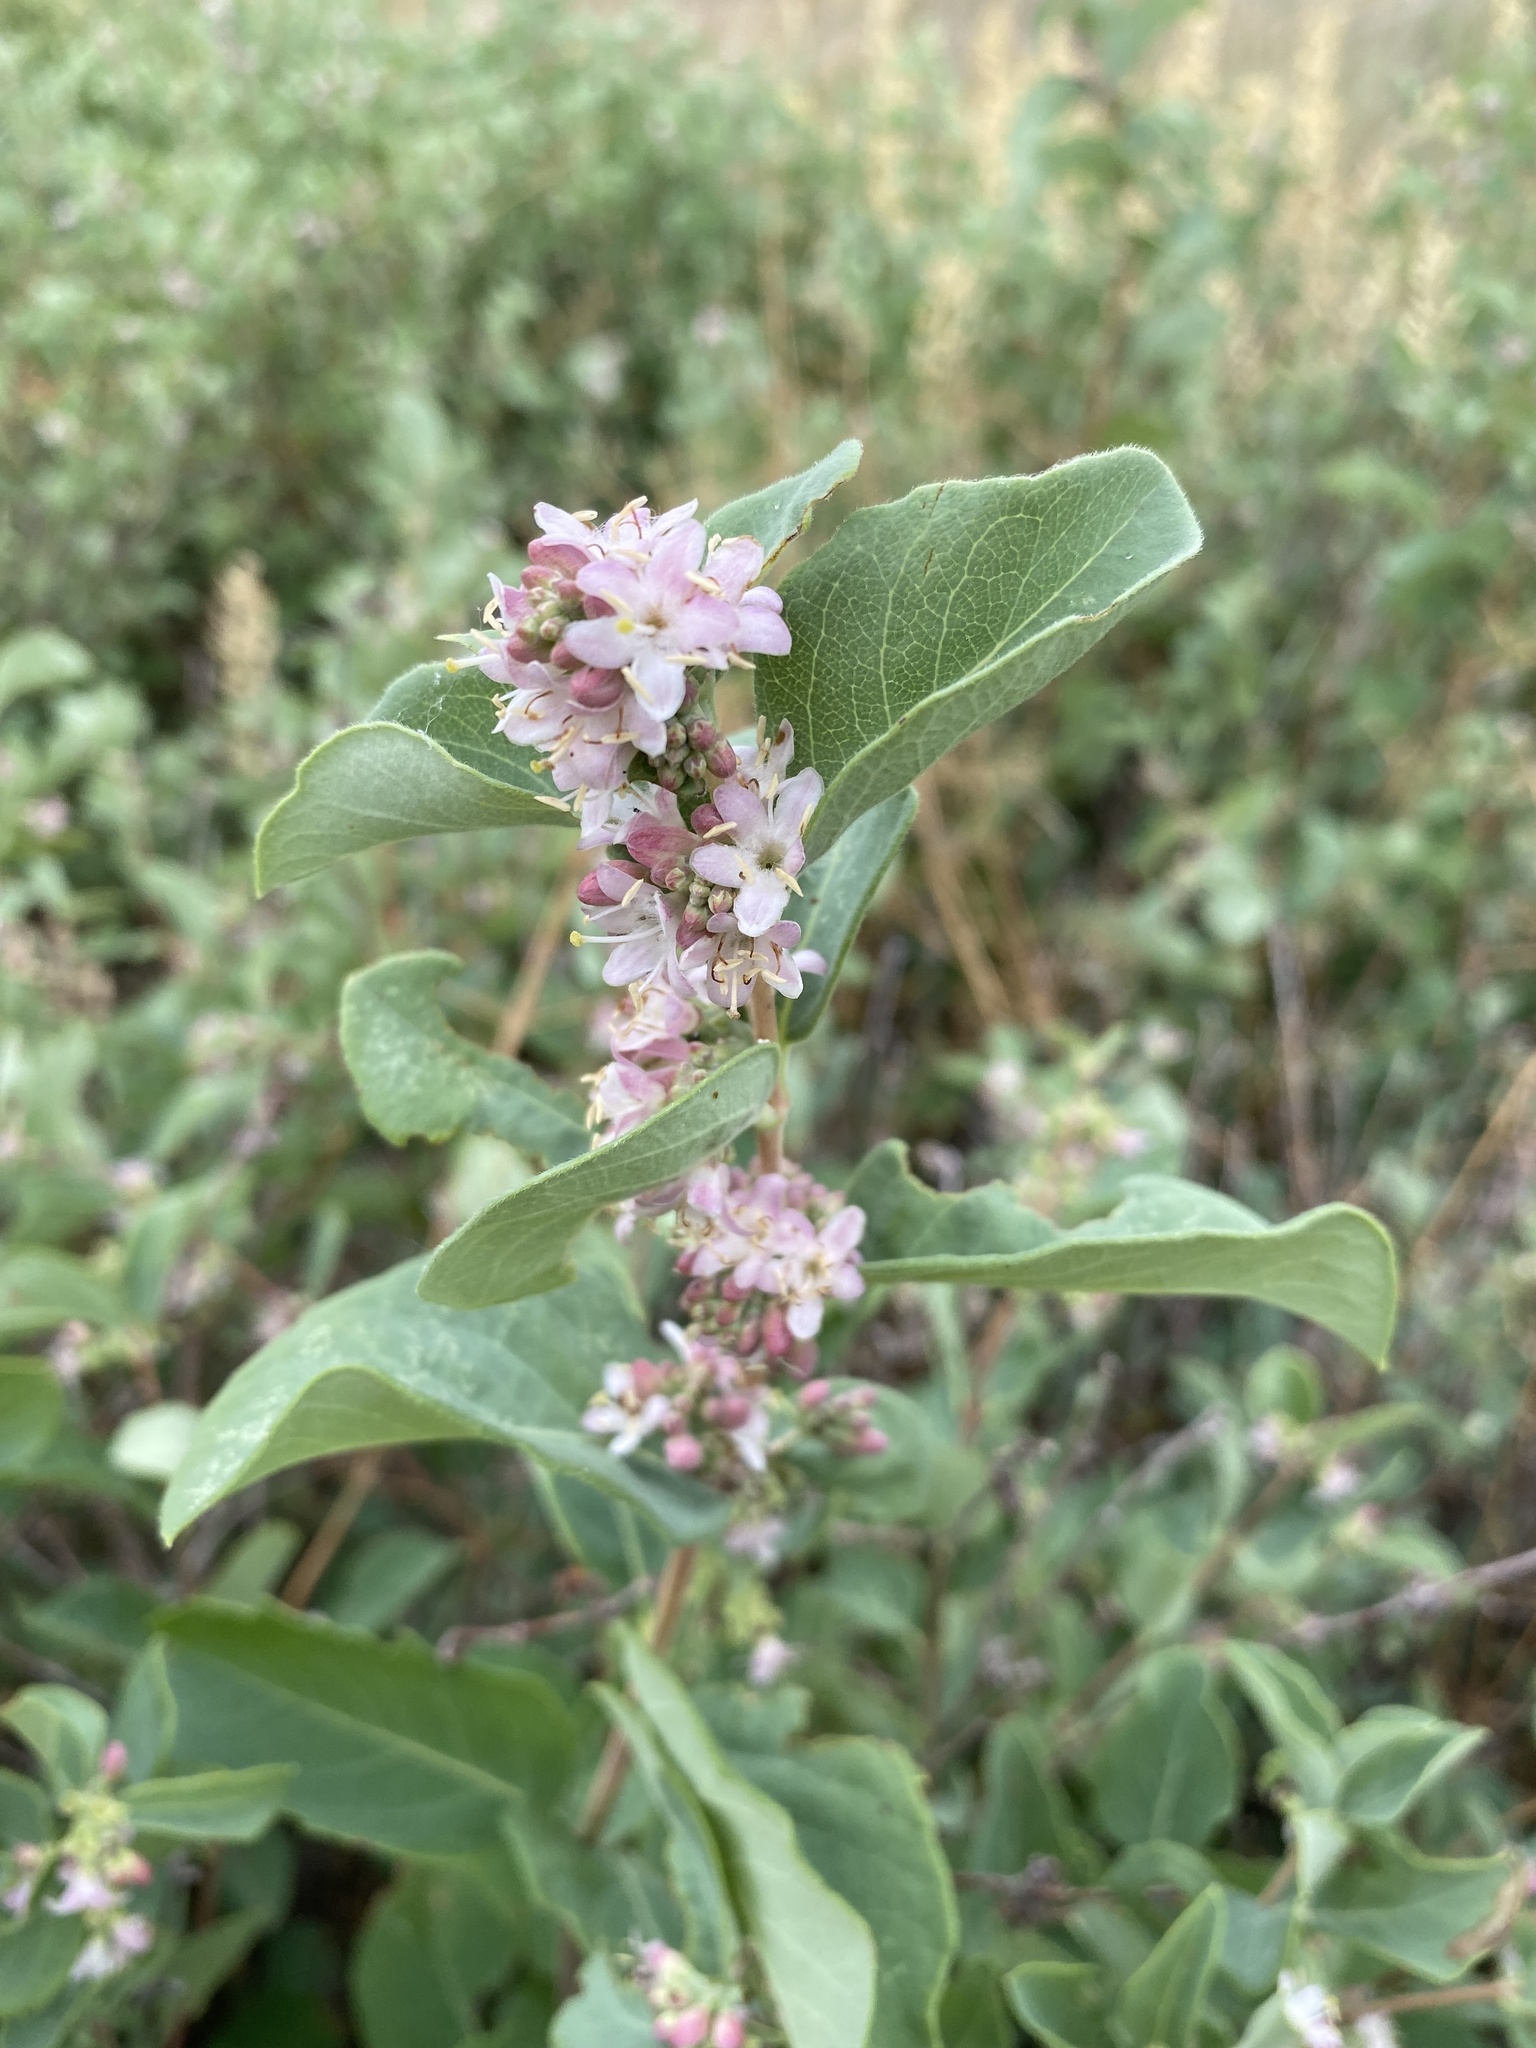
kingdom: Plantae
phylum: Tracheophyta
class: Magnoliopsida
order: Dipsacales
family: Caprifoliaceae
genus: Symphoricarpos
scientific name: Symphoricarpos occidentalis
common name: Wolfberry
